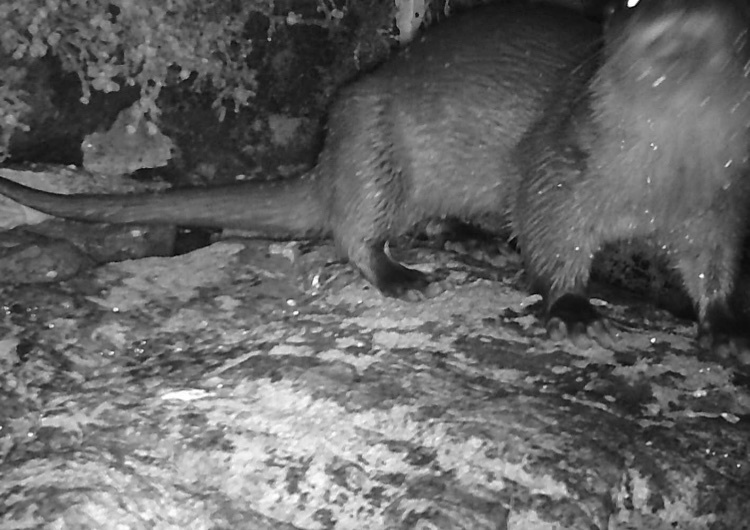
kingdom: Animalia
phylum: Chordata
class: Mammalia
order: Carnivora
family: Mustelidae
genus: Lutra
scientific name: Lutra lutra
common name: European otter
